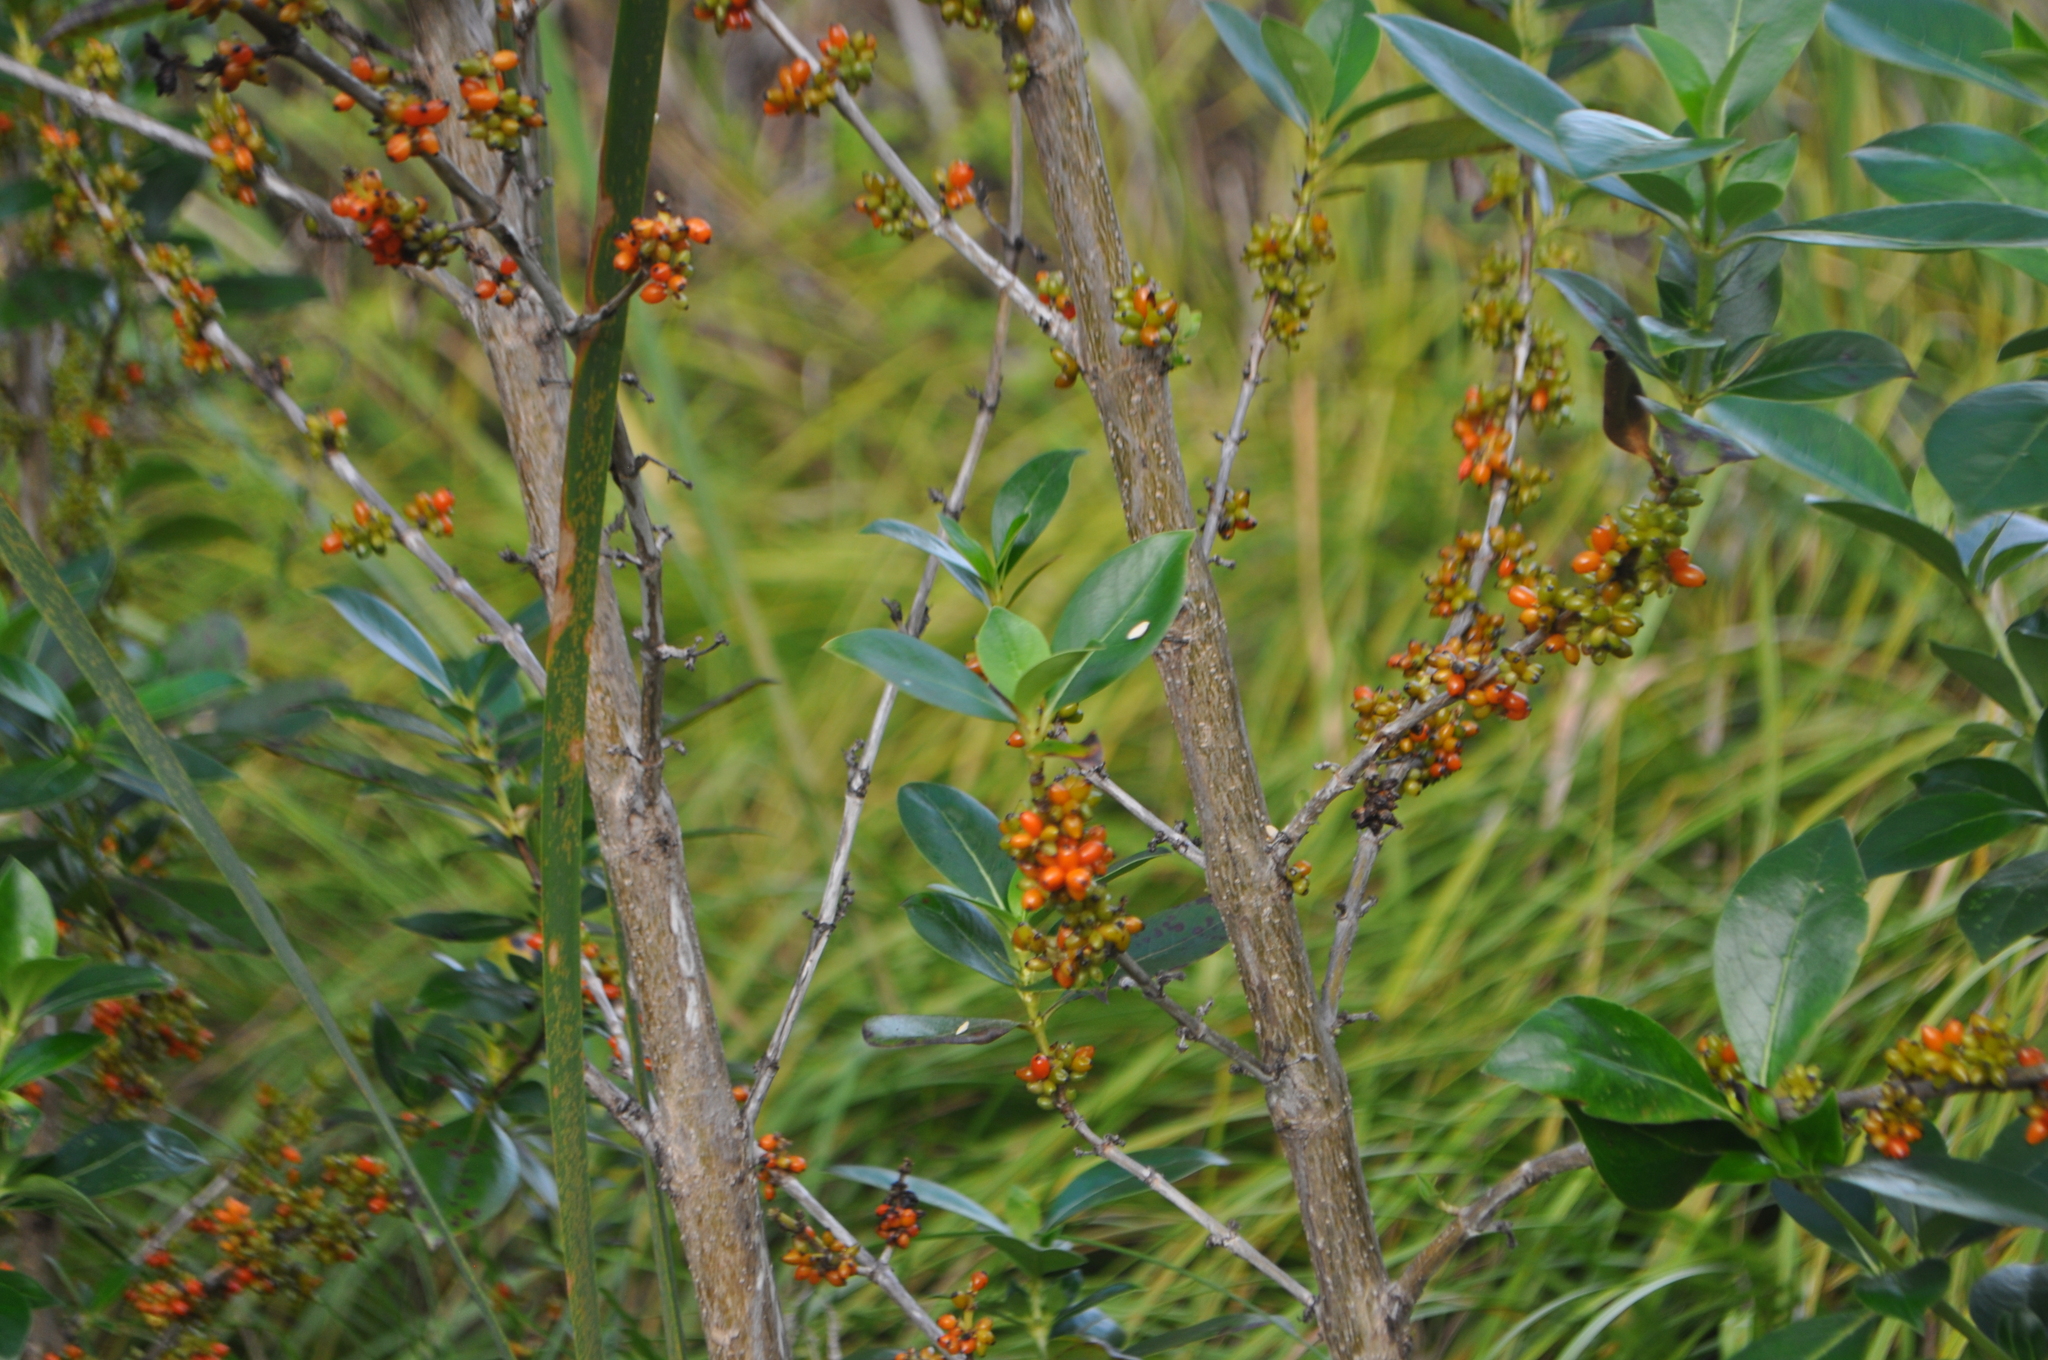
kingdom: Plantae
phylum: Tracheophyta
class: Magnoliopsida
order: Gentianales
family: Rubiaceae
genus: Coprosma
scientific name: Coprosma robusta
